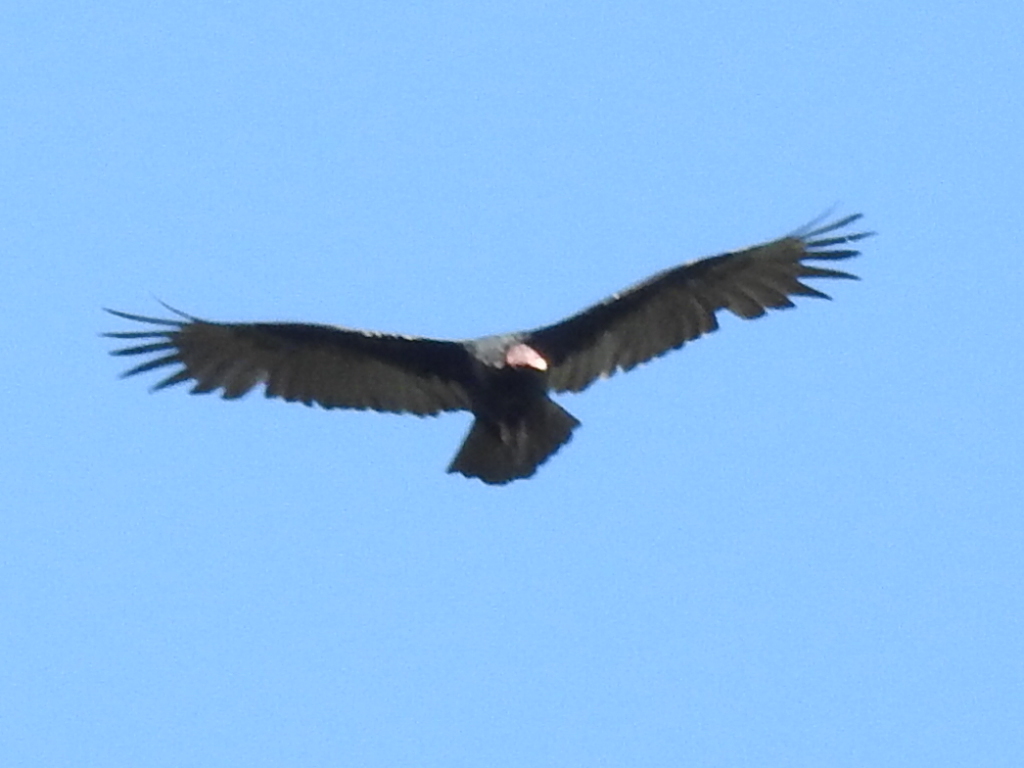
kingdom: Animalia
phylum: Chordata
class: Aves
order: Accipitriformes
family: Cathartidae
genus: Cathartes
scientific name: Cathartes aura
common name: Turkey vulture
